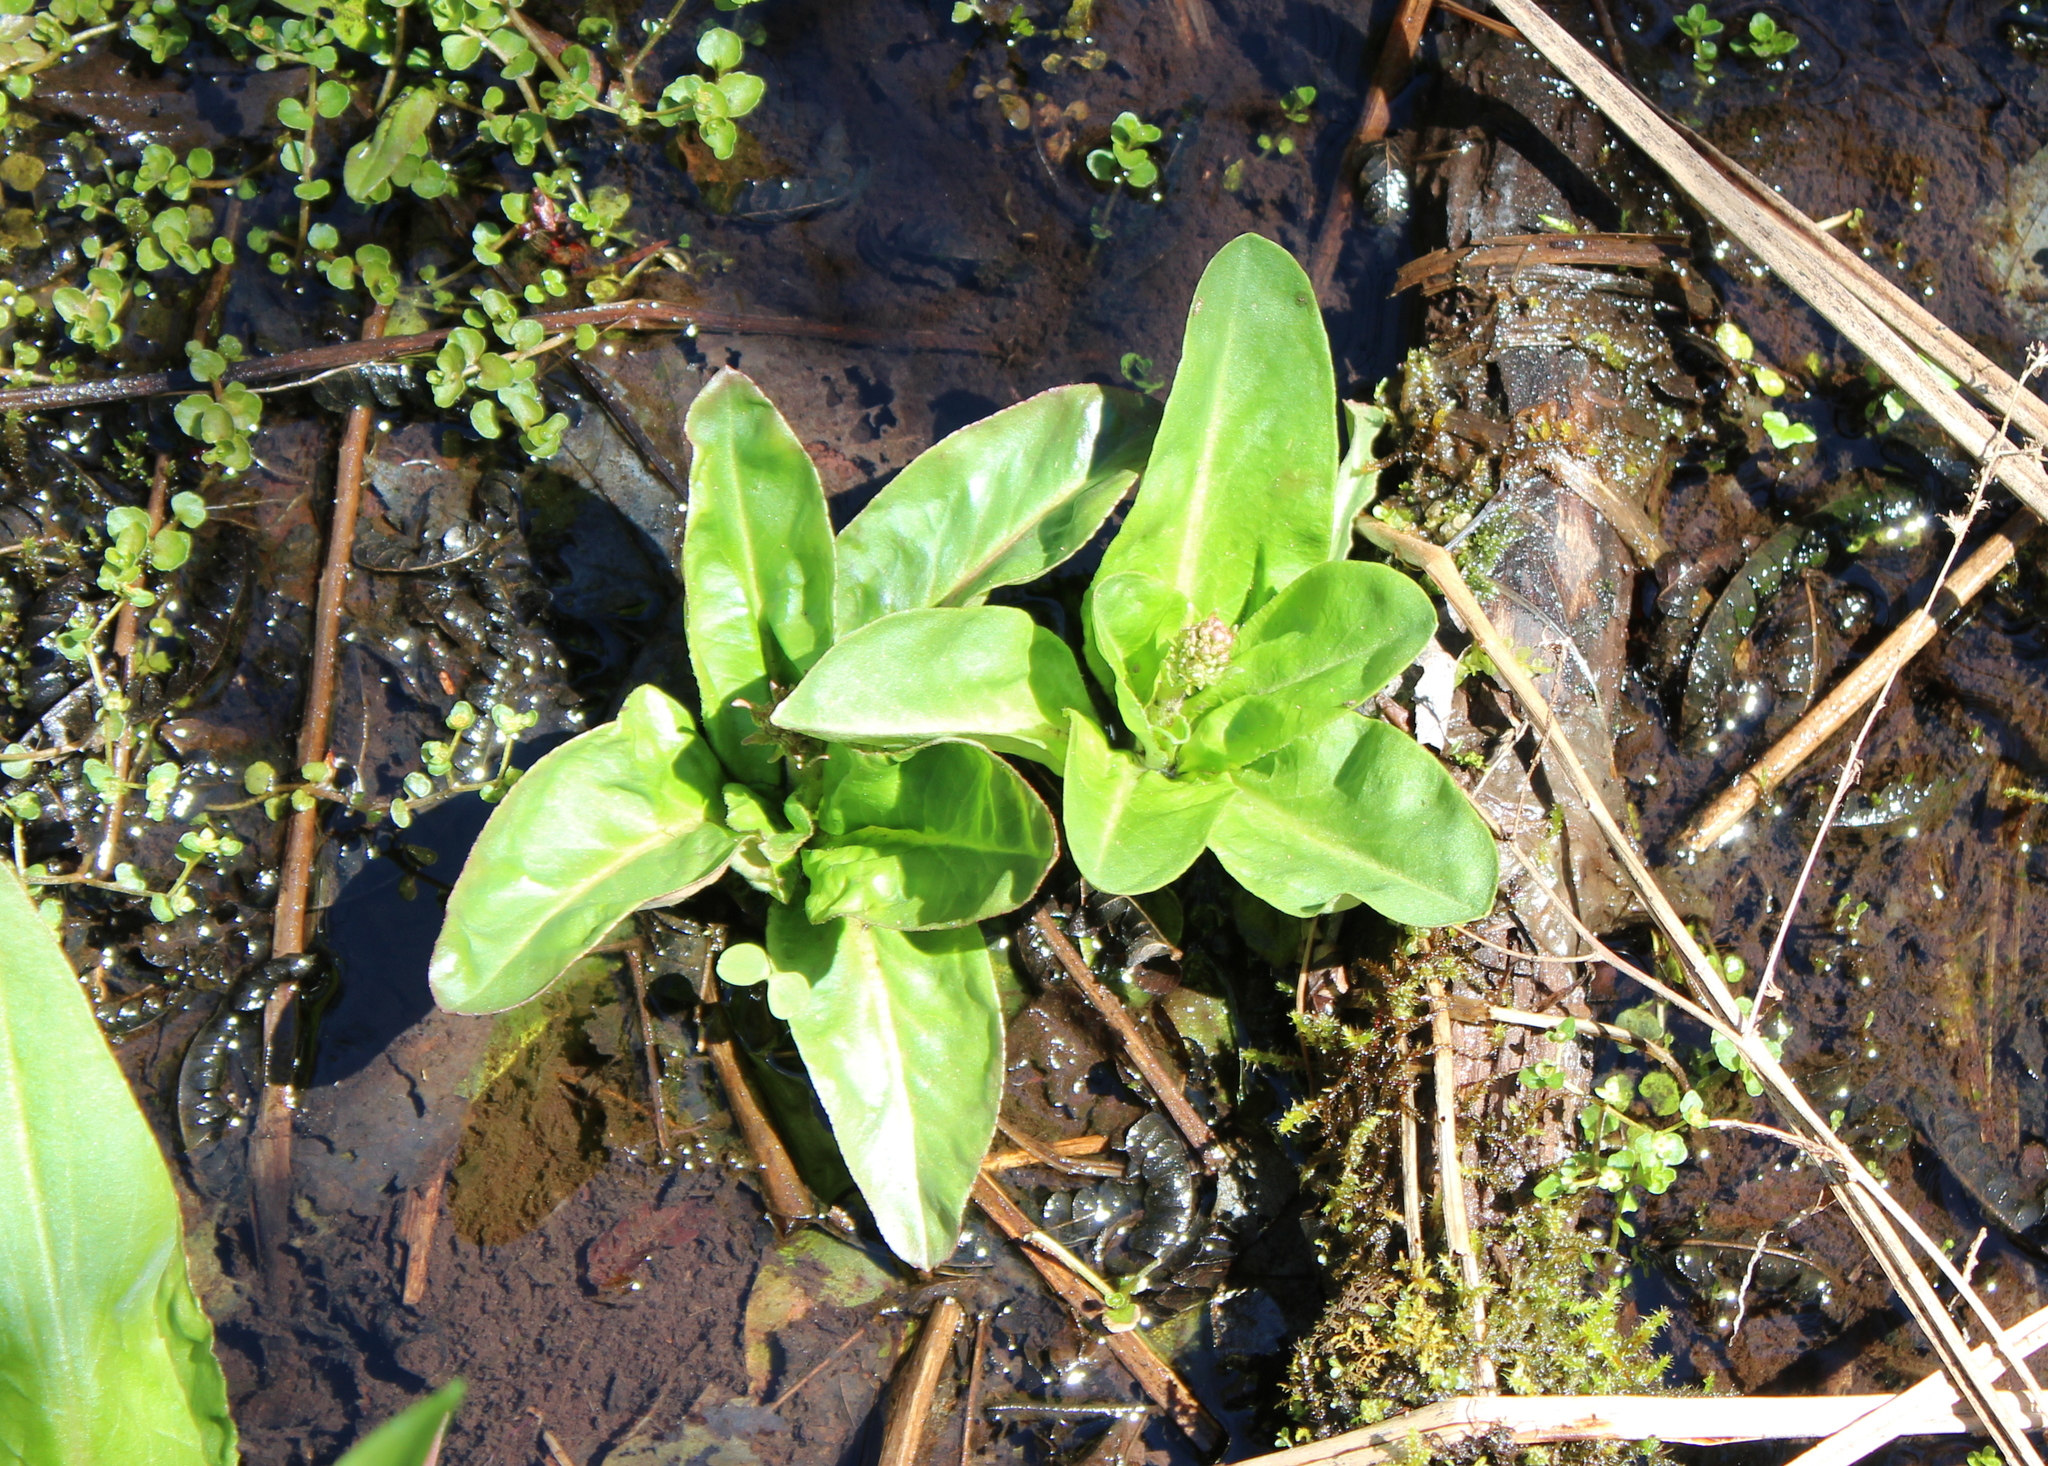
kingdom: Plantae
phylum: Tracheophyta
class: Magnoliopsida
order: Saxifragales
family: Saxifragaceae
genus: Micranthes
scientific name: Micranthes pensylvanica
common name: Marsh saxifrage
